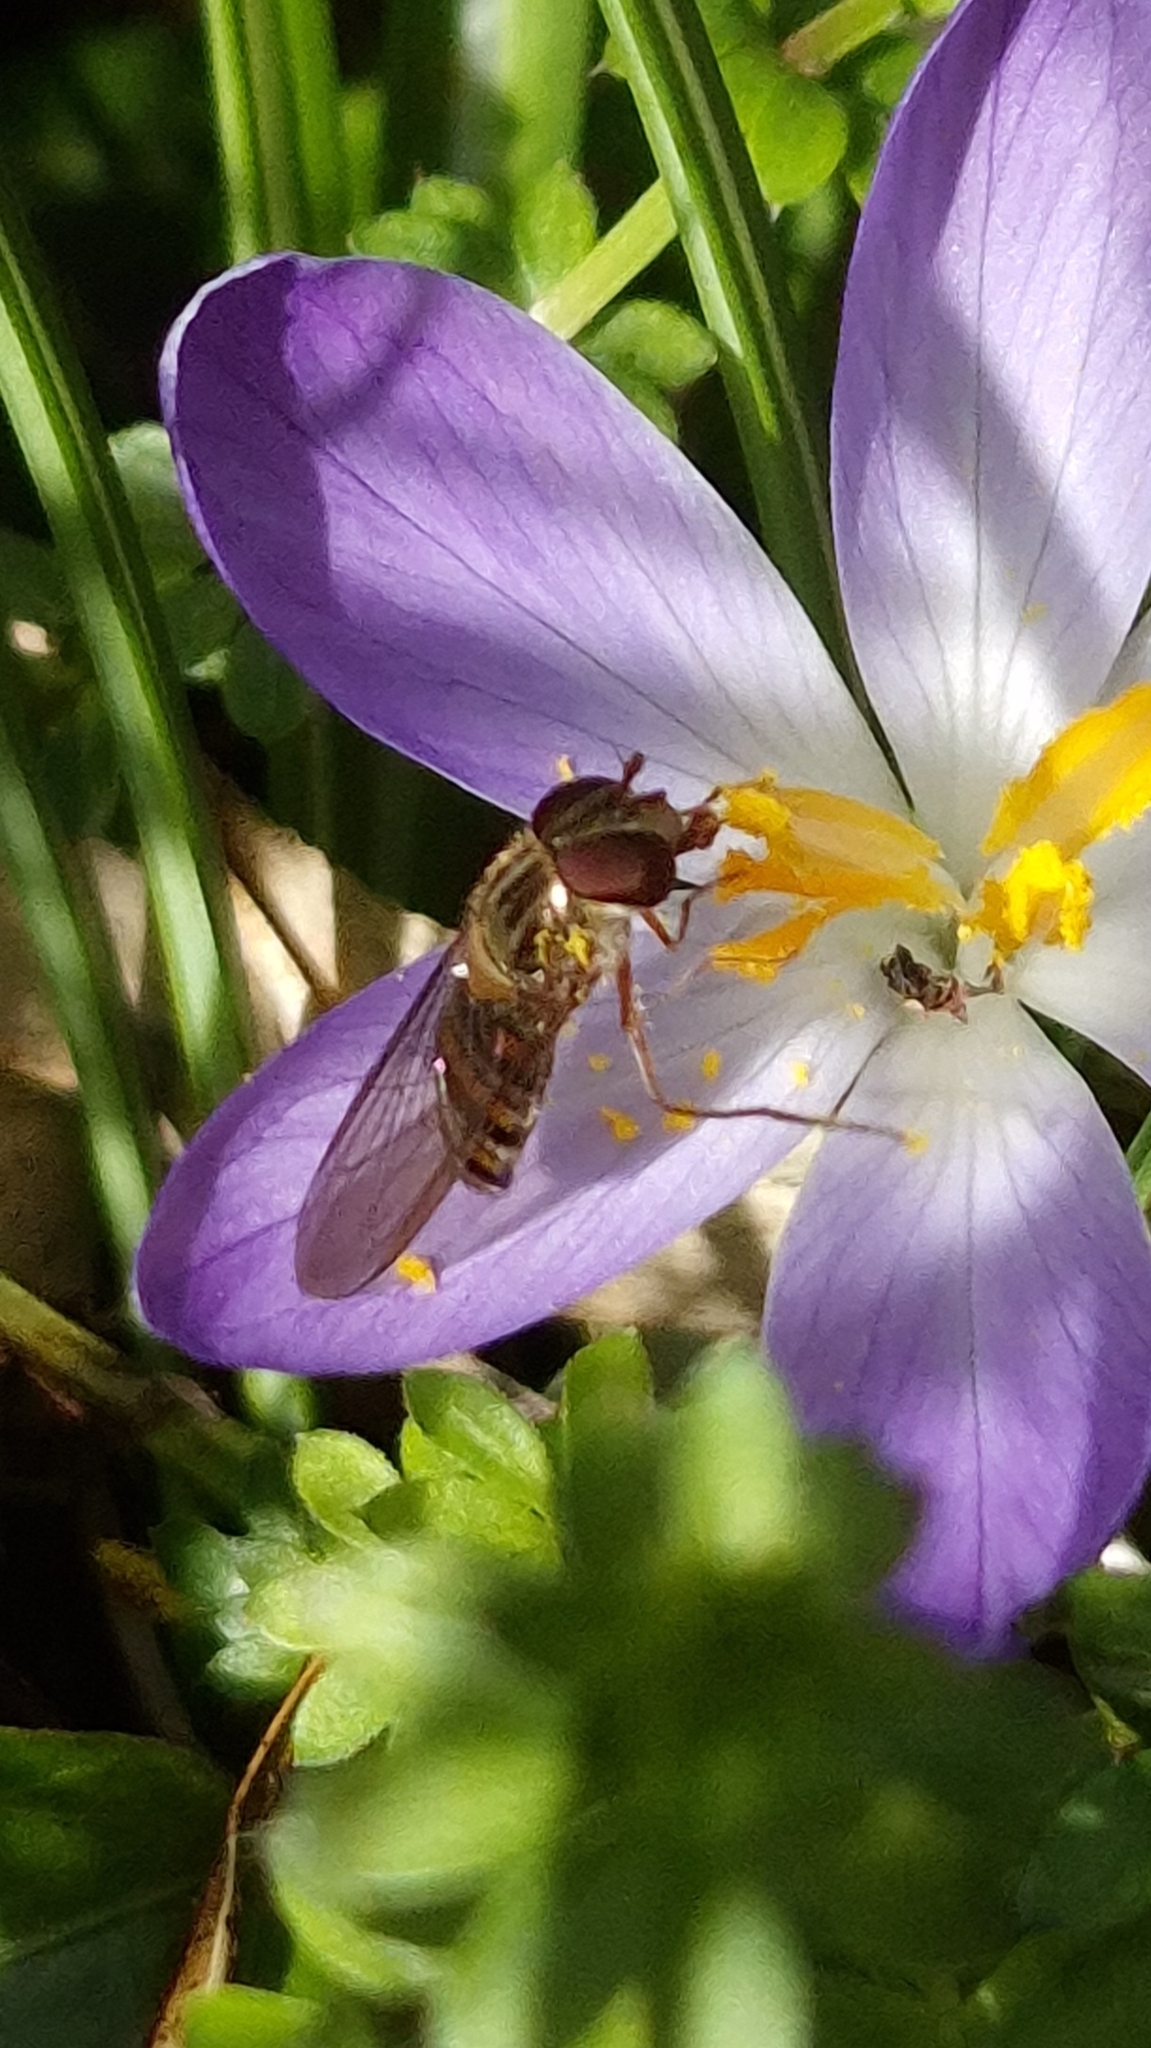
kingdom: Animalia
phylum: Arthropoda
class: Insecta
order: Diptera
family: Syrphidae
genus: Episyrphus
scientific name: Episyrphus balteatus
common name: Marmalade hoverfly
